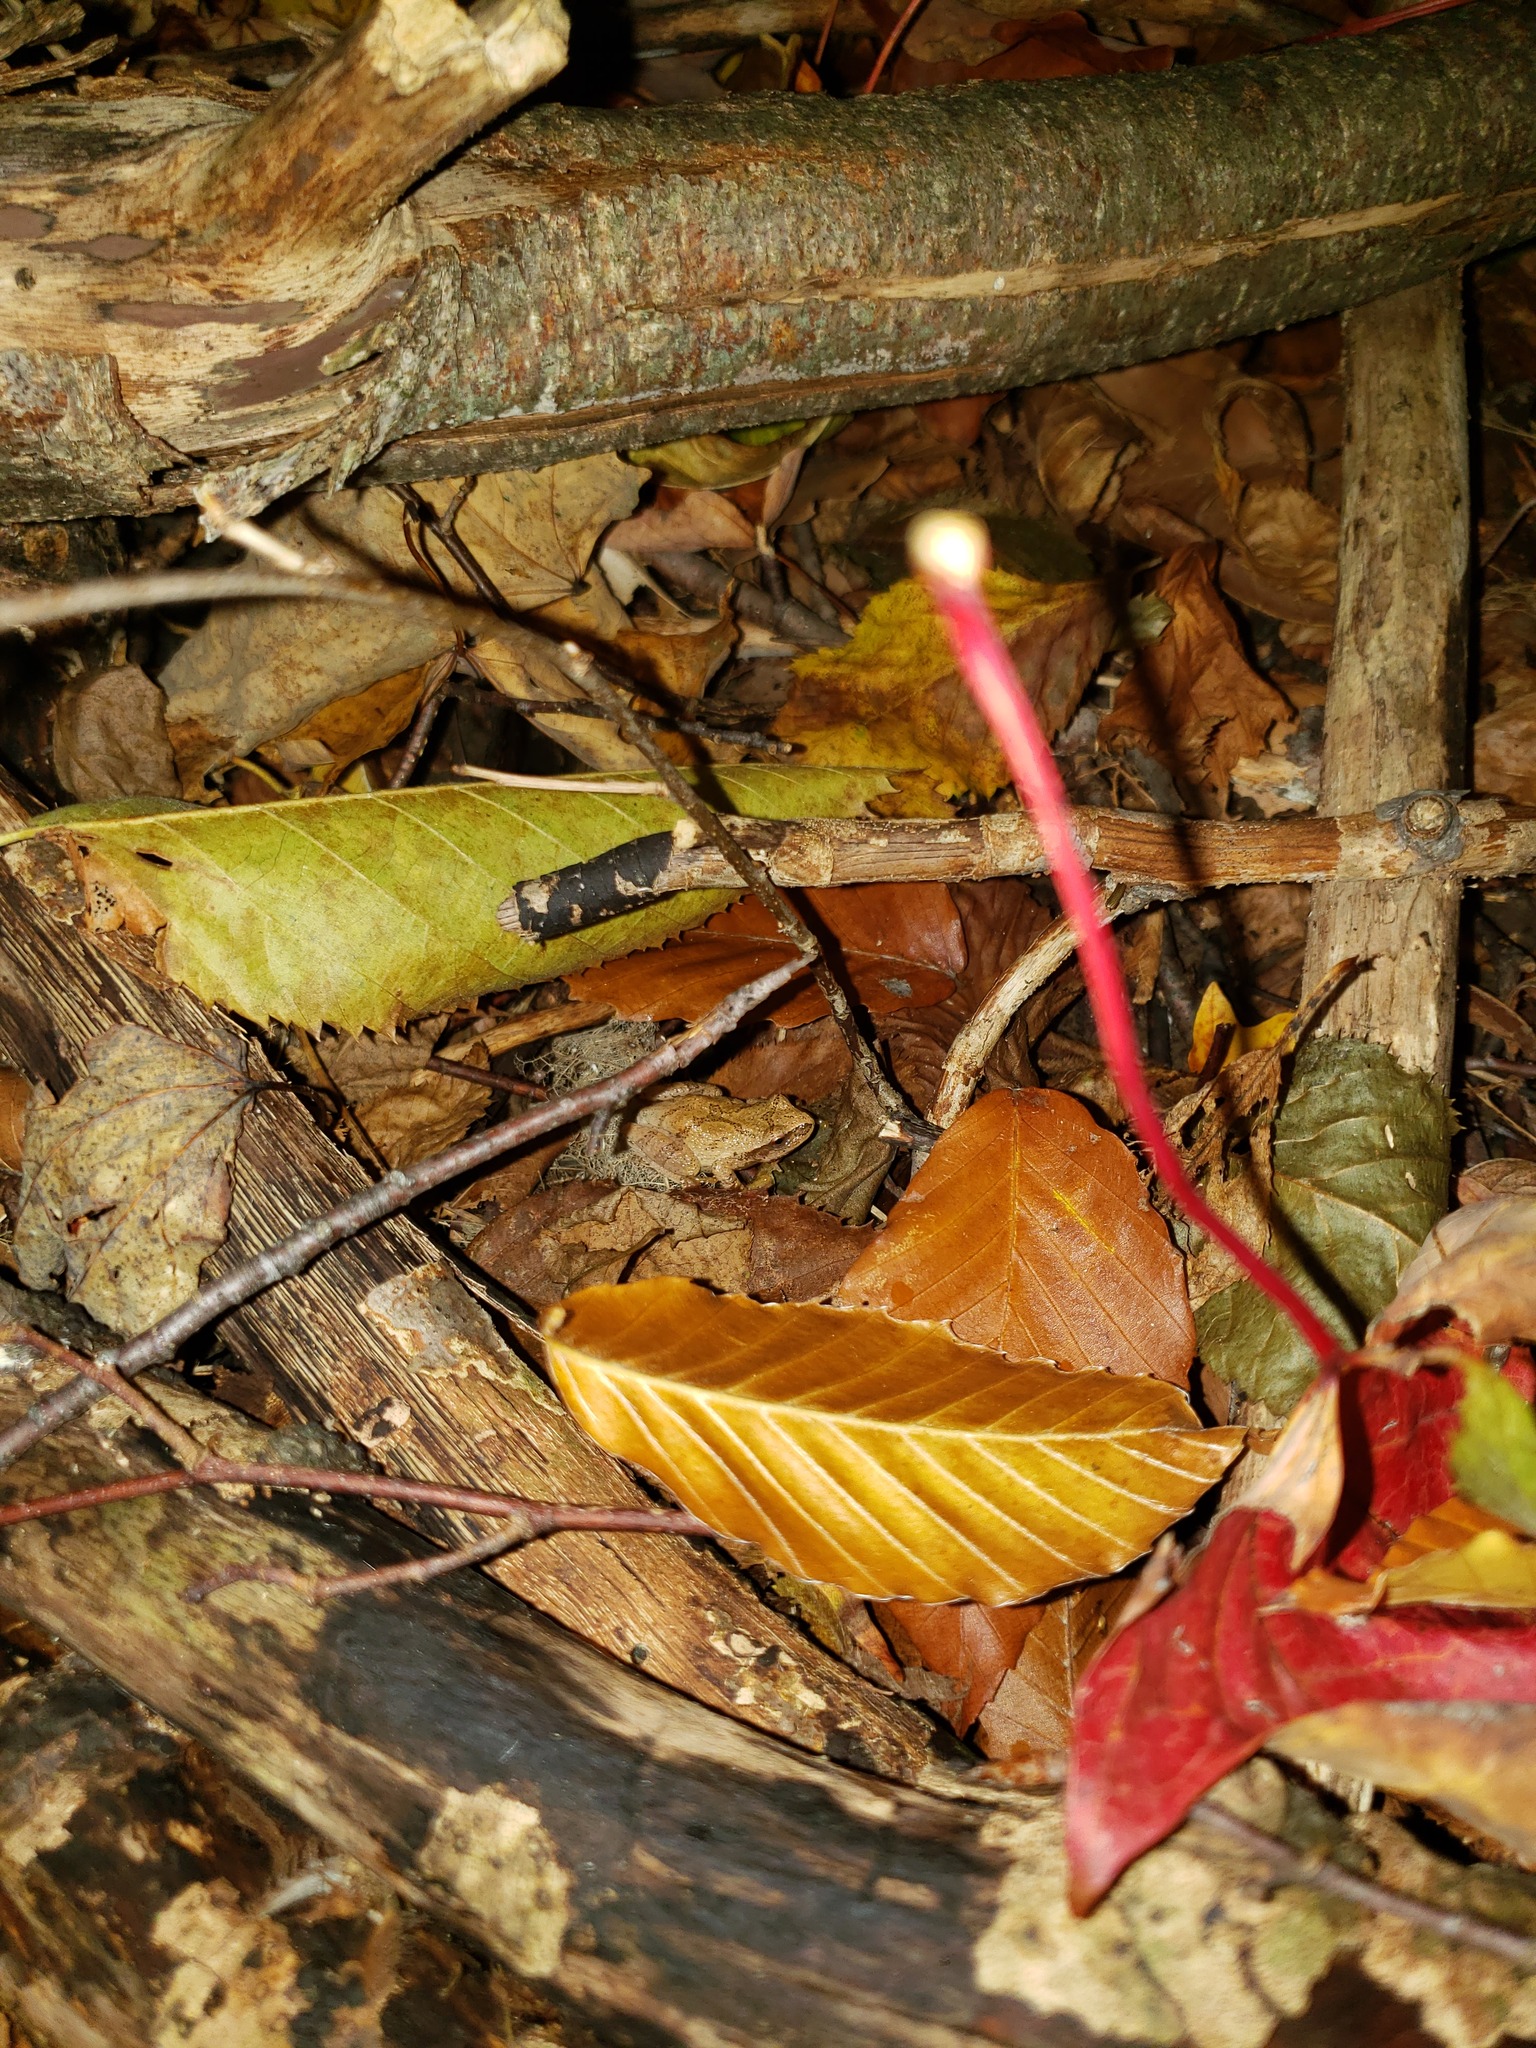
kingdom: Animalia
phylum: Chordata
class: Amphibia
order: Anura
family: Hylidae
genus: Pseudacris
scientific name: Pseudacris crucifer
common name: Spring peeper
